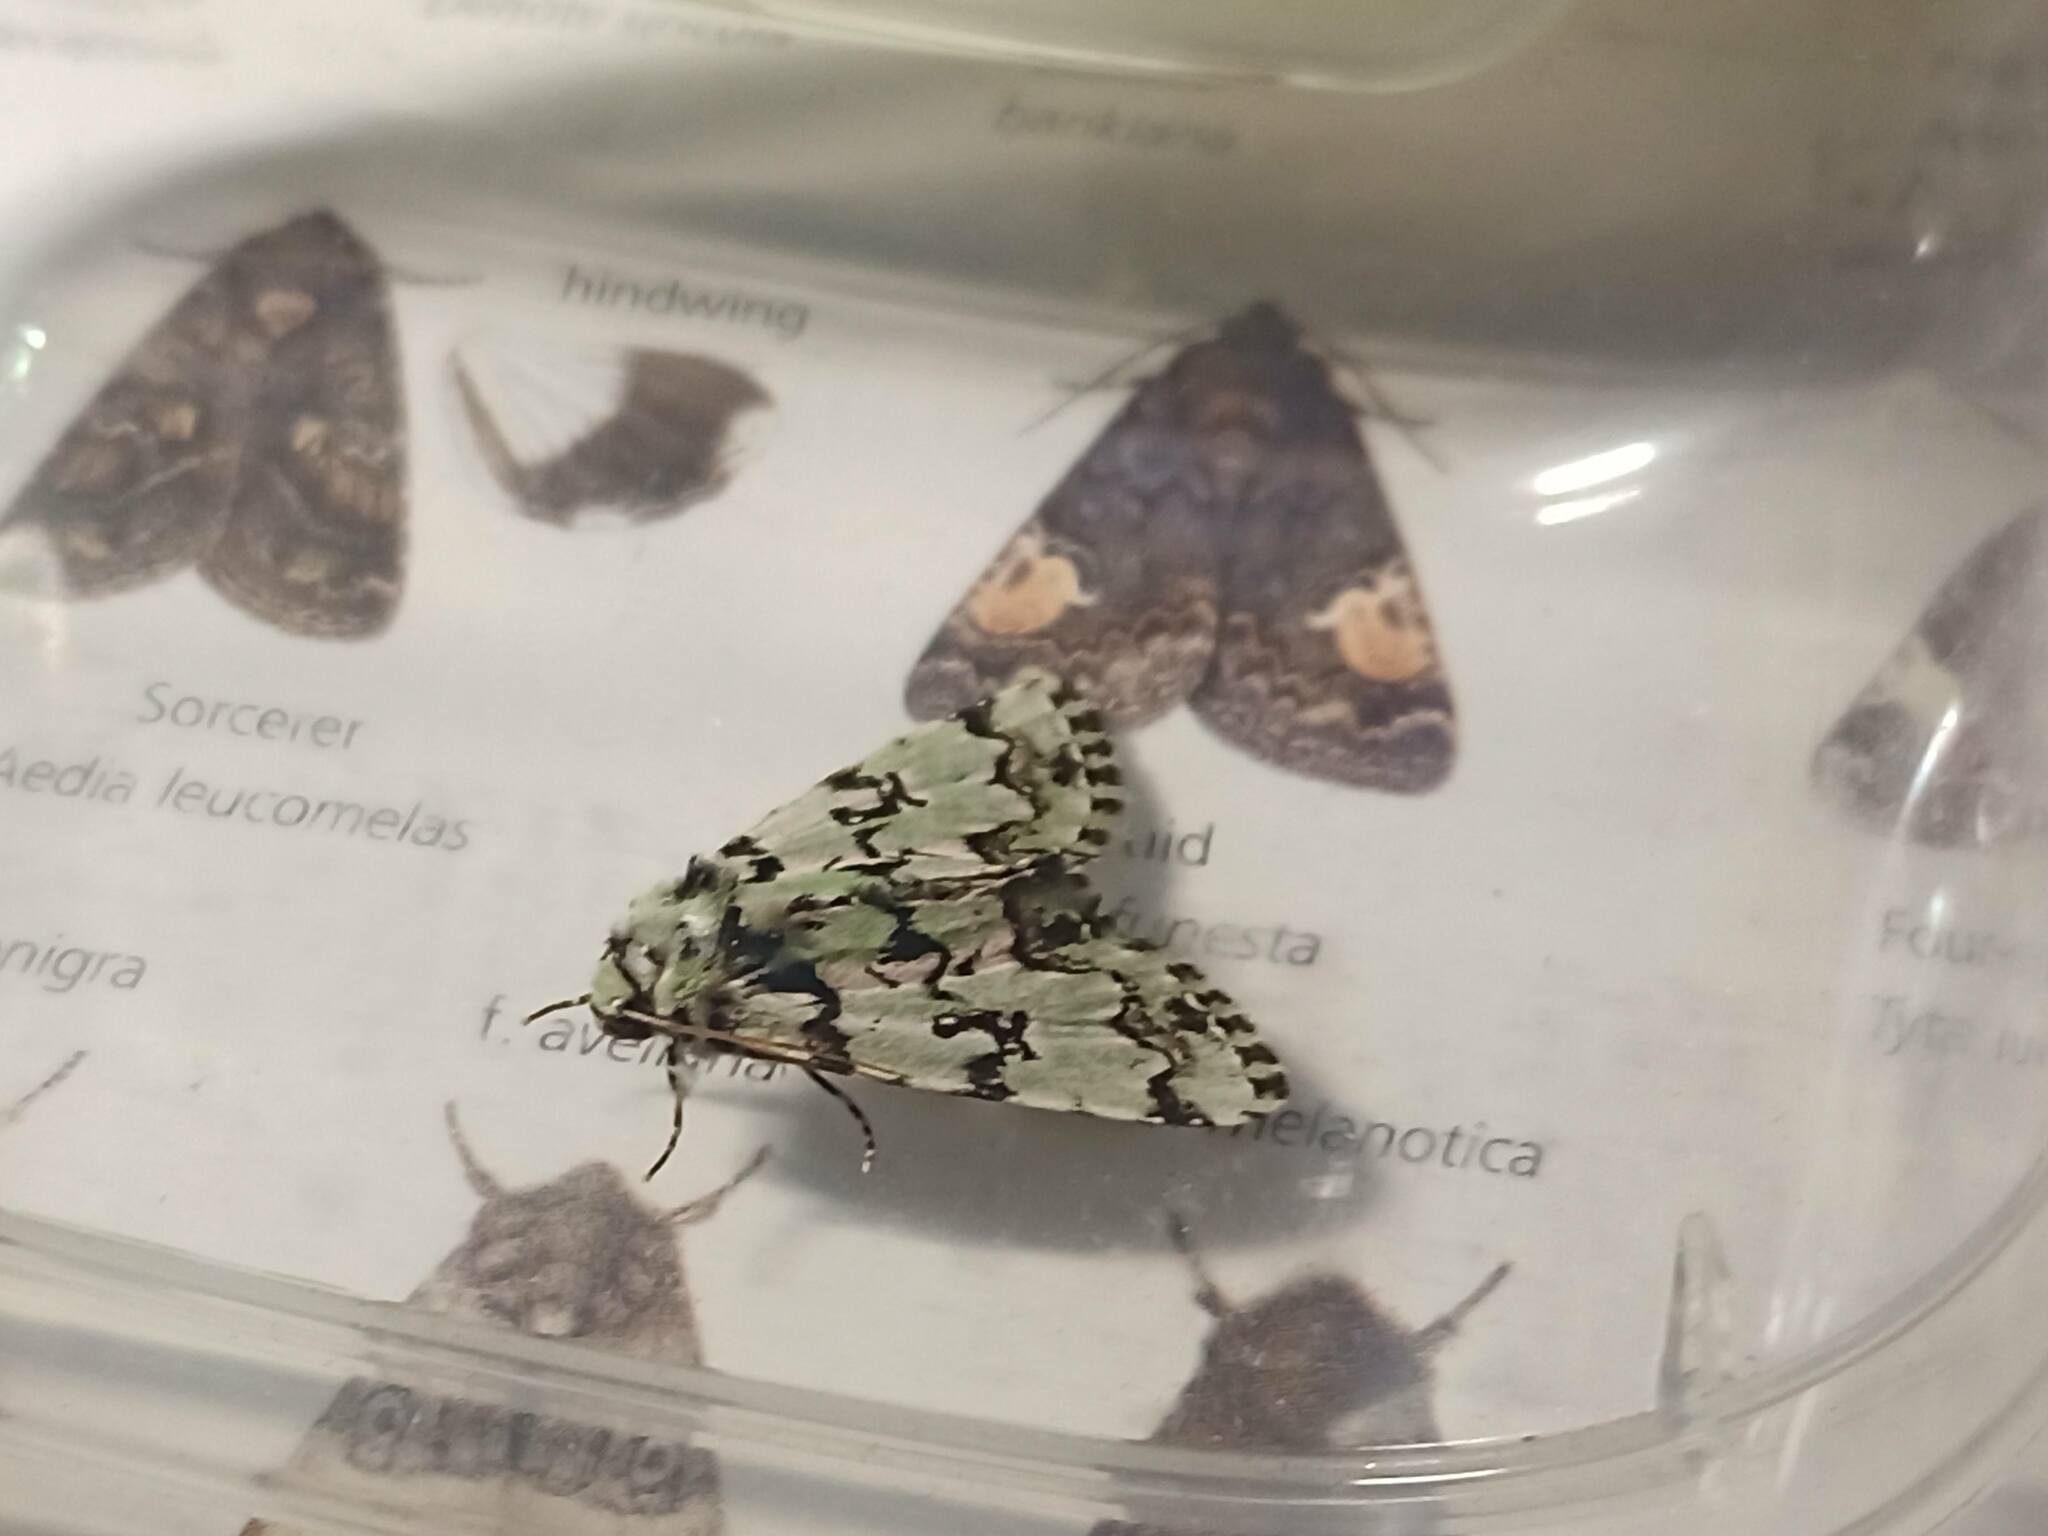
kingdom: Animalia
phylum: Arthropoda
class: Insecta
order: Lepidoptera
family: Noctuidae
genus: Moma
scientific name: Moma alpium
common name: Scarce merveille du jour
